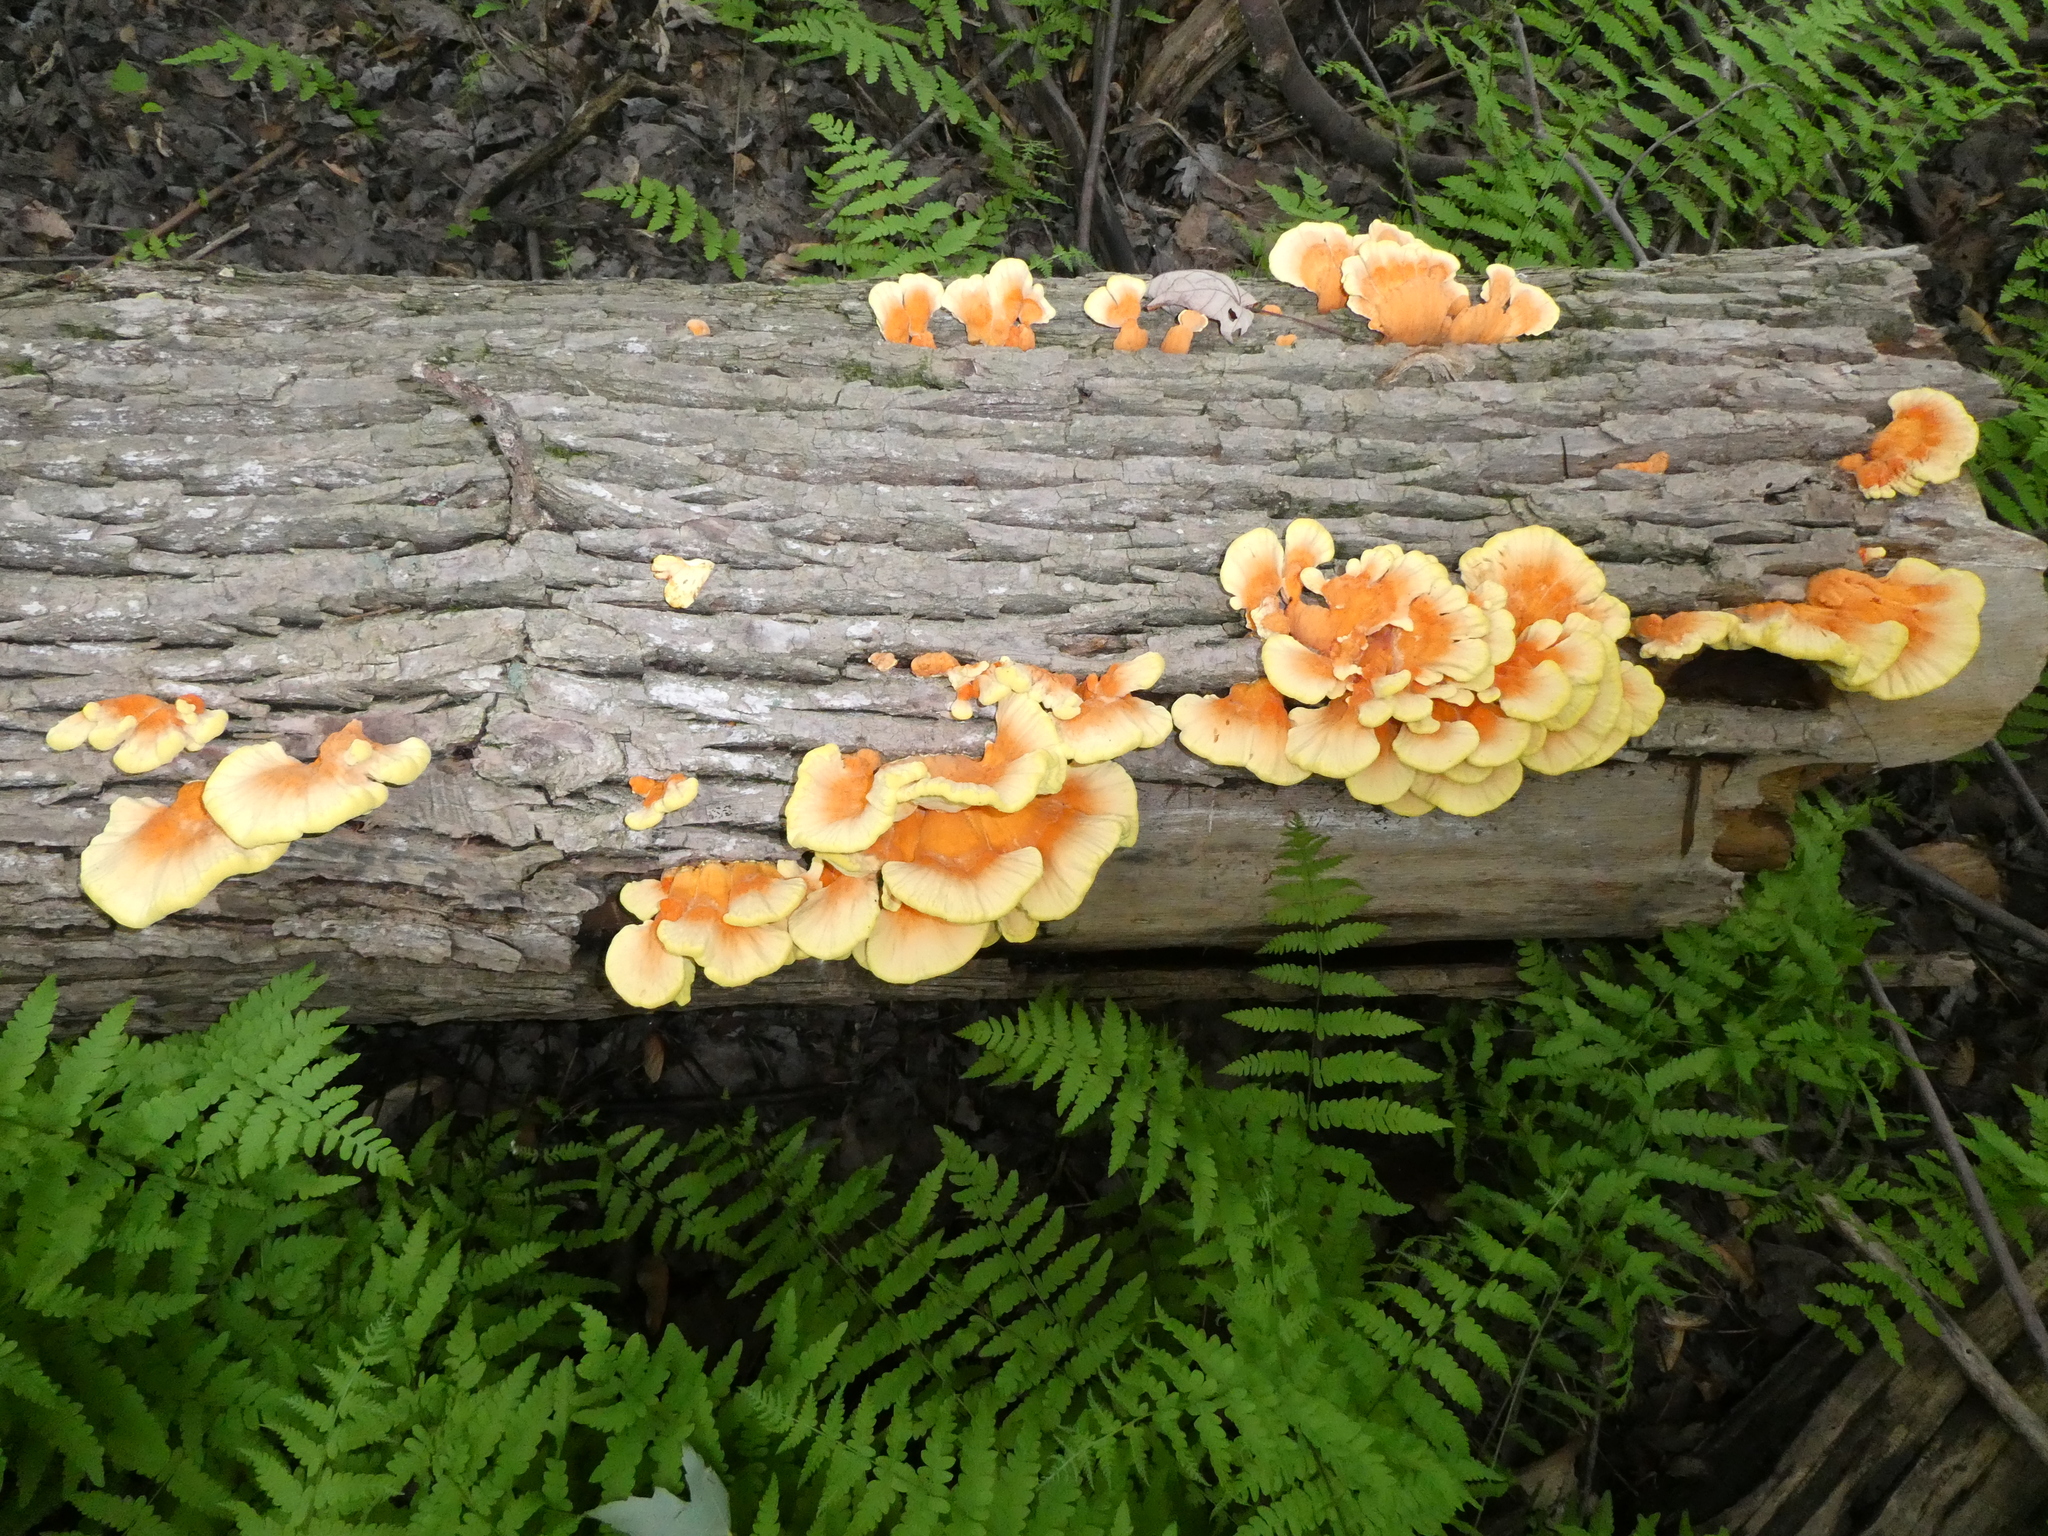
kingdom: Fungi
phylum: Basidiomycota
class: Agaricomycetes
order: Polyporales
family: Laetiporaceae
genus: Laetiporus
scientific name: Laetiporus sulphureus
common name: Chicken of the woods
